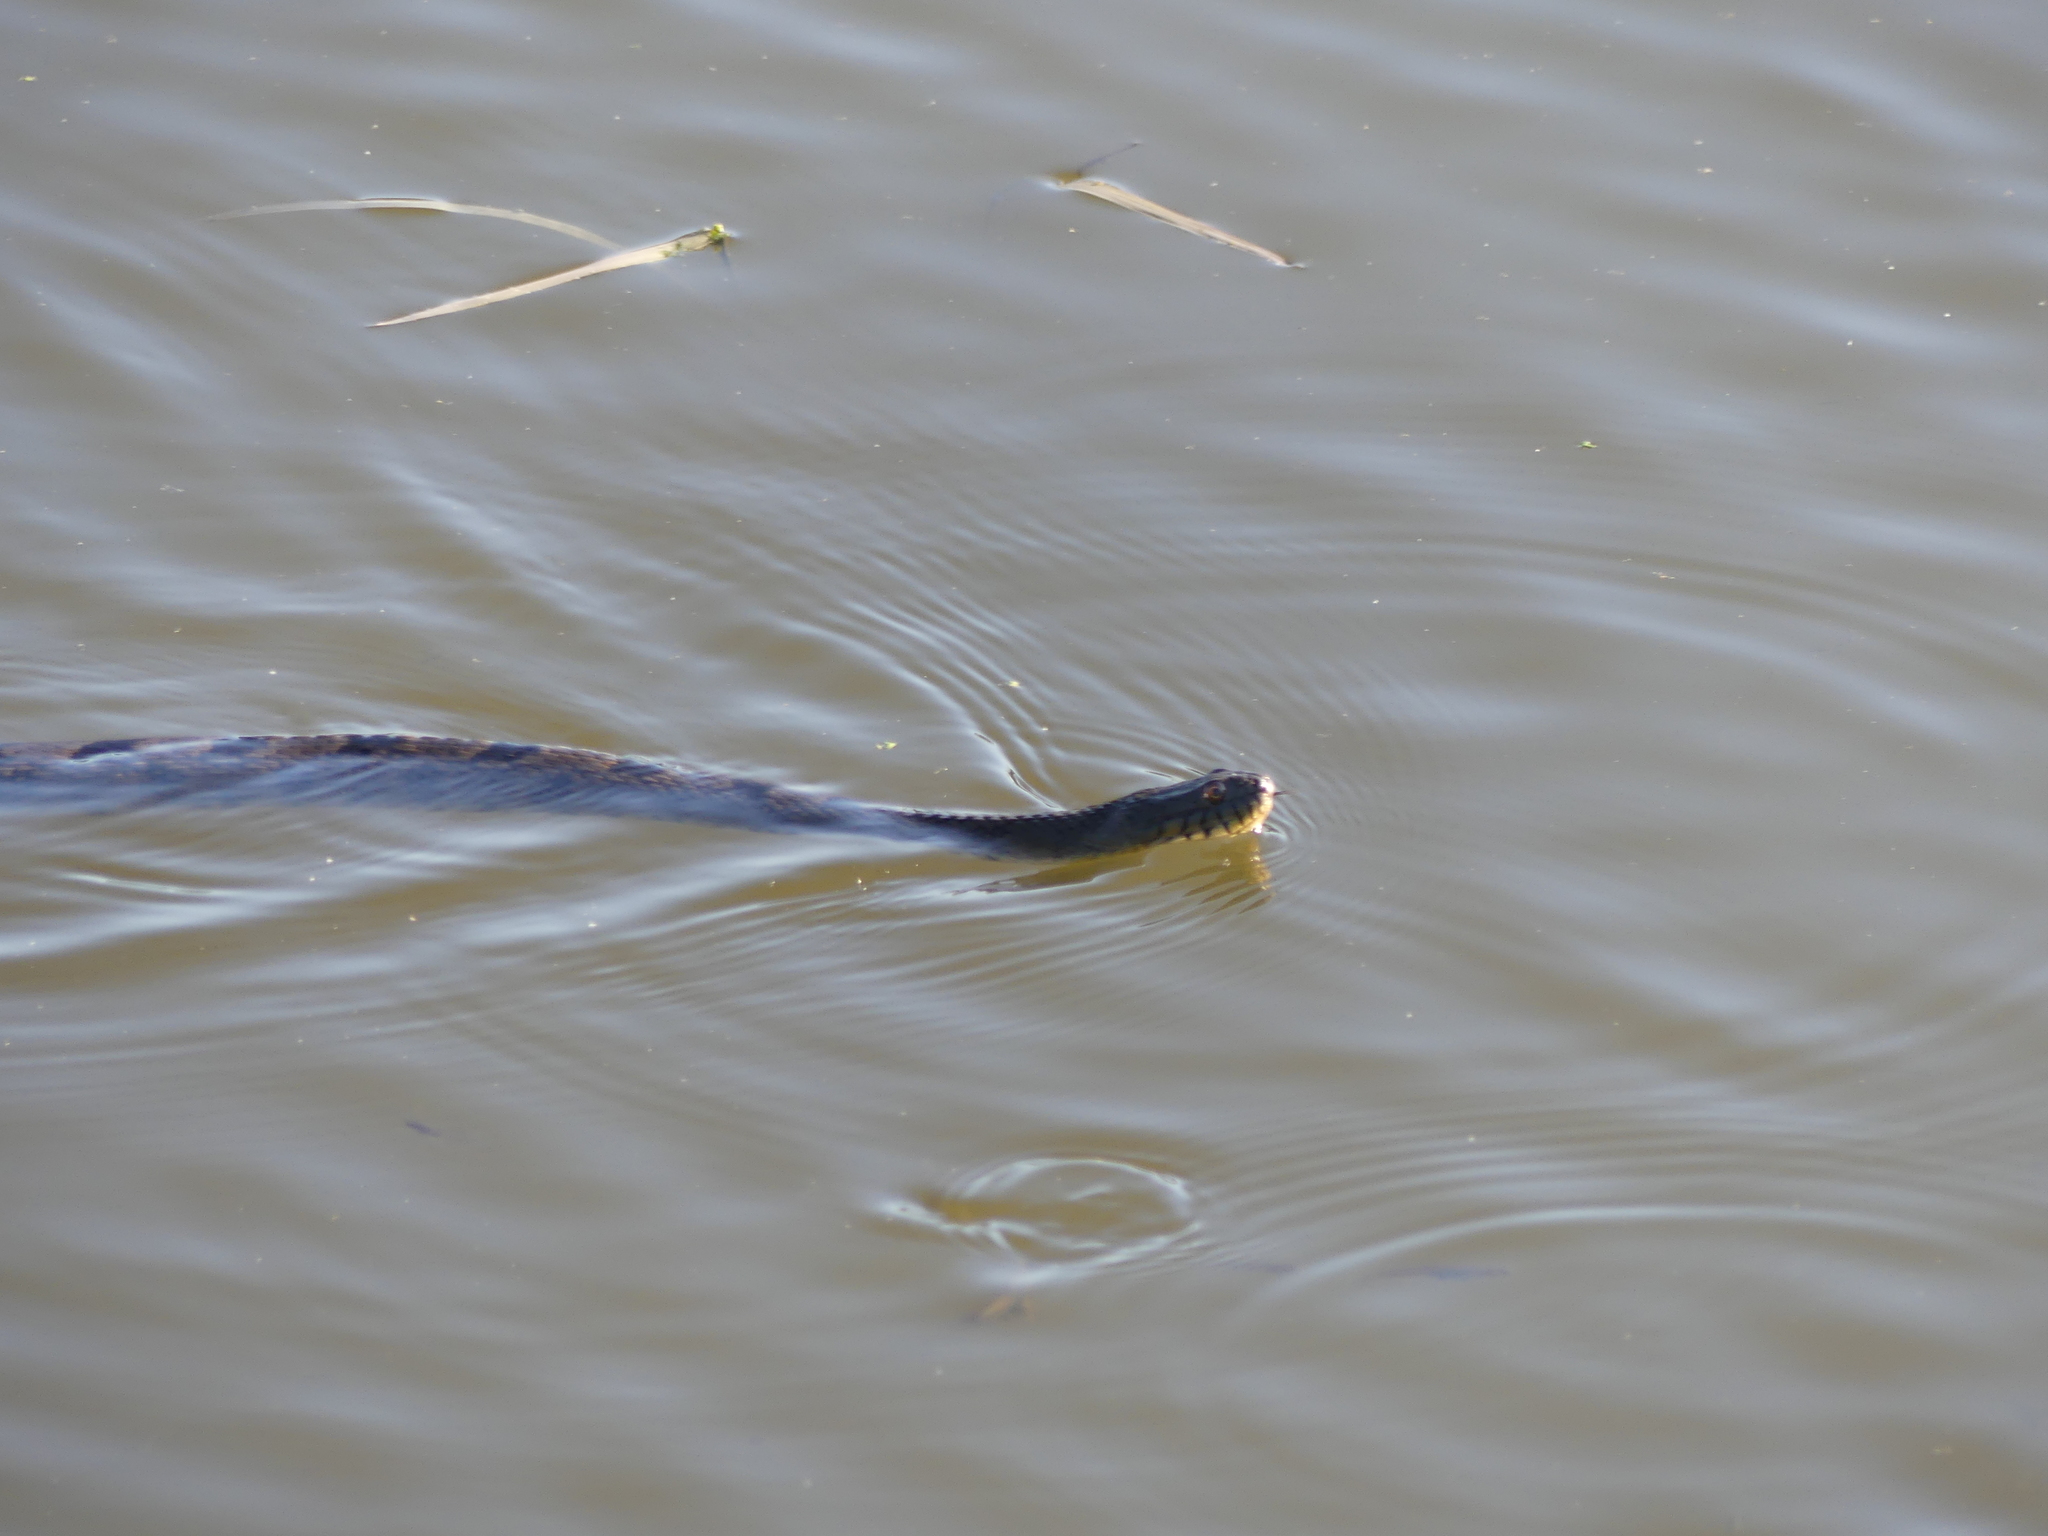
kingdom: Animalia
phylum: Chordata
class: Squamata
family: Colubridae
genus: Nerodia
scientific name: Nerodia rhombifer
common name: Diamondback water snake
